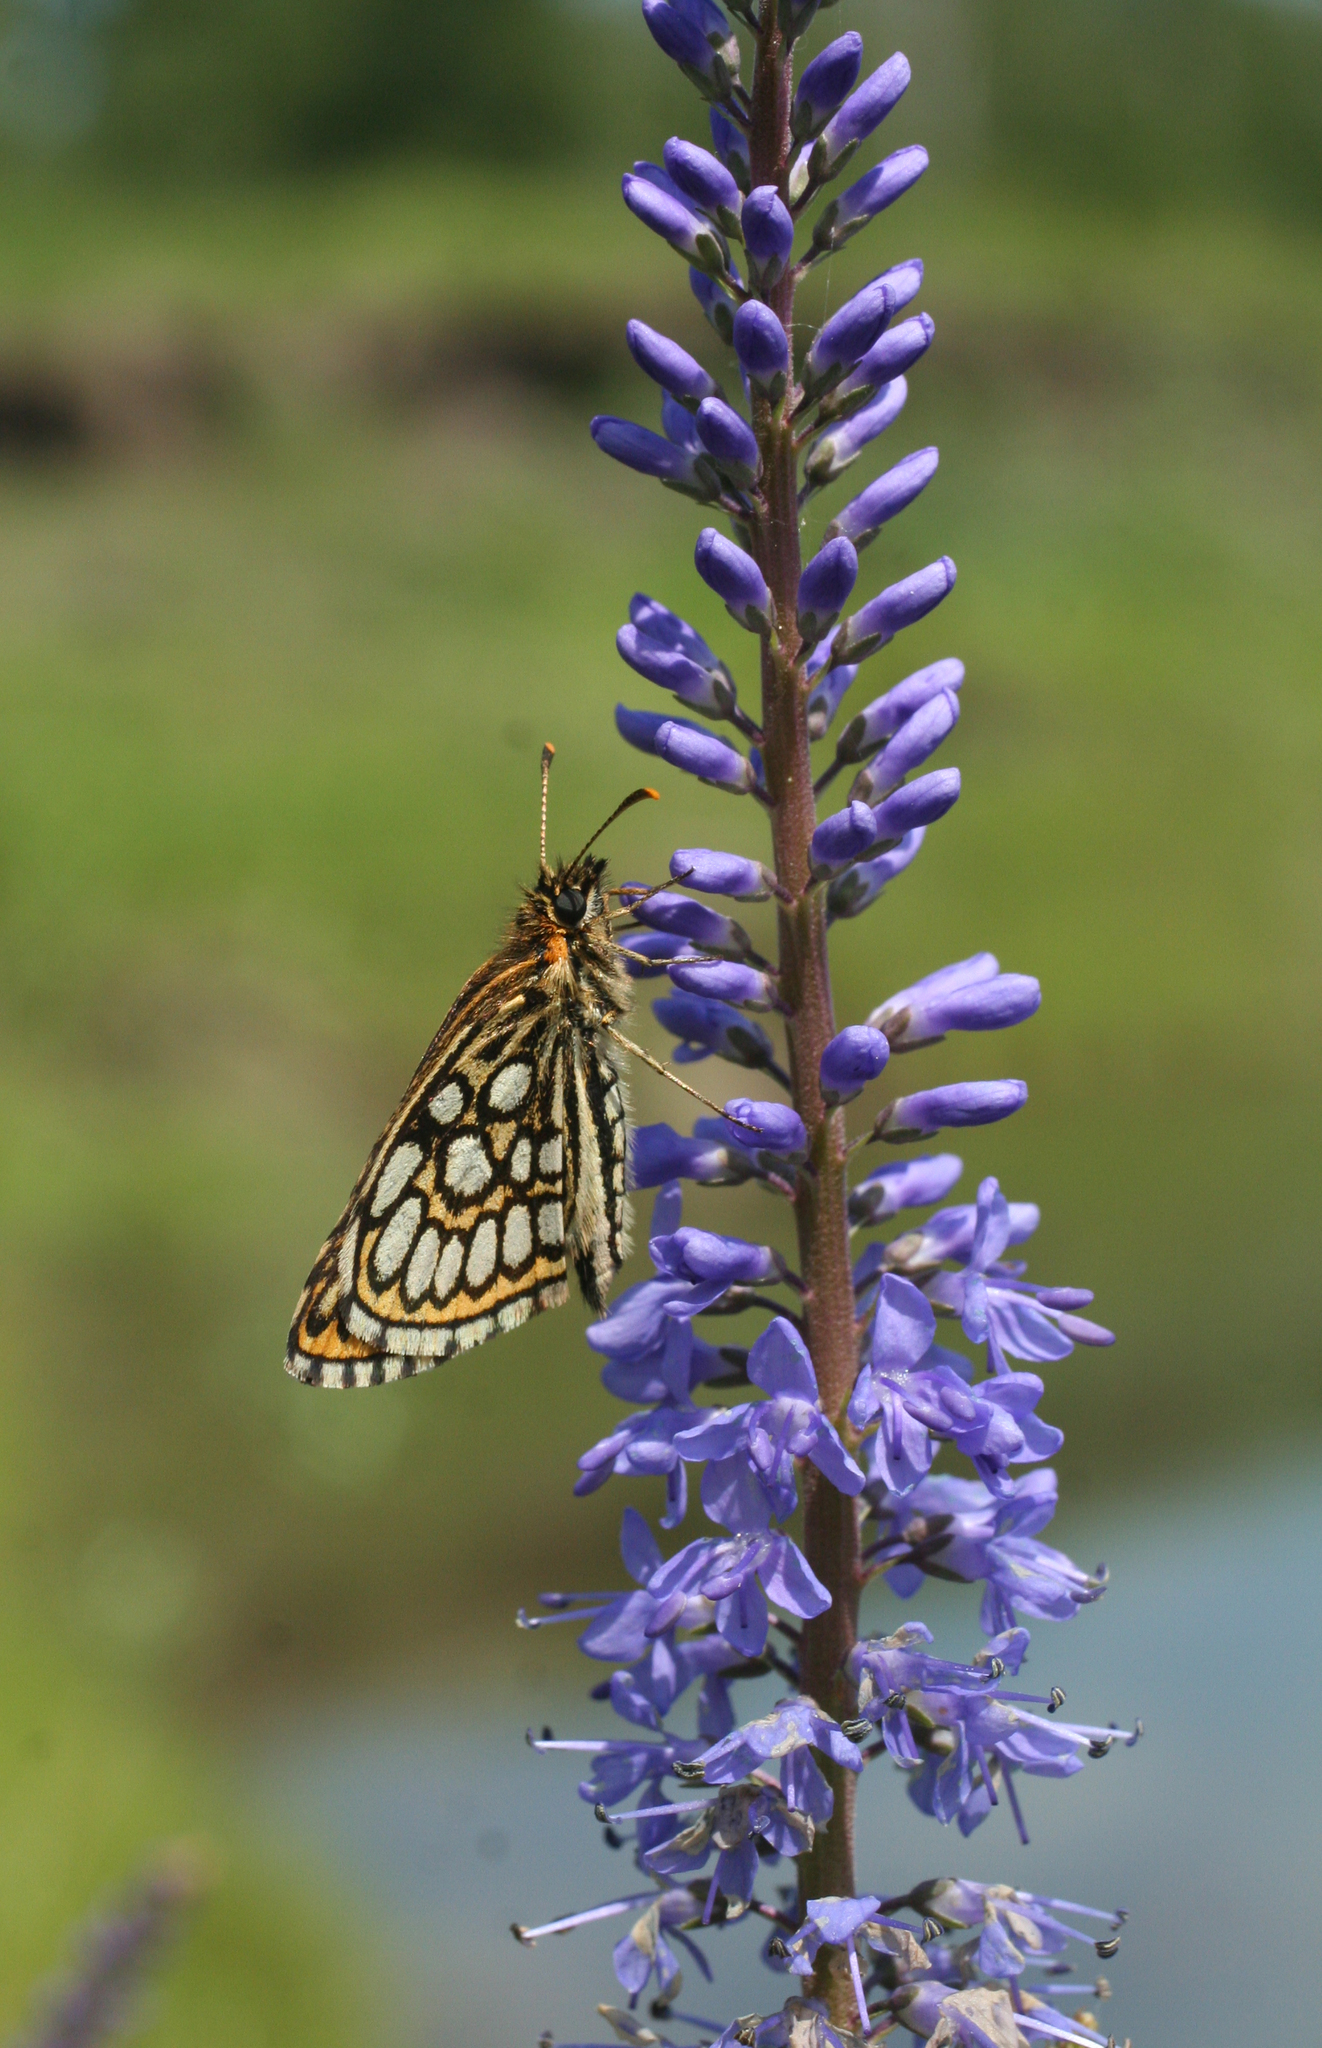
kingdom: Animalia
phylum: Arthropoda
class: Insecta
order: Lepidoptera
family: Hesperiidae
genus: Heteropterus
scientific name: Heteropterus morpheus
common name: Large chequered skipper
